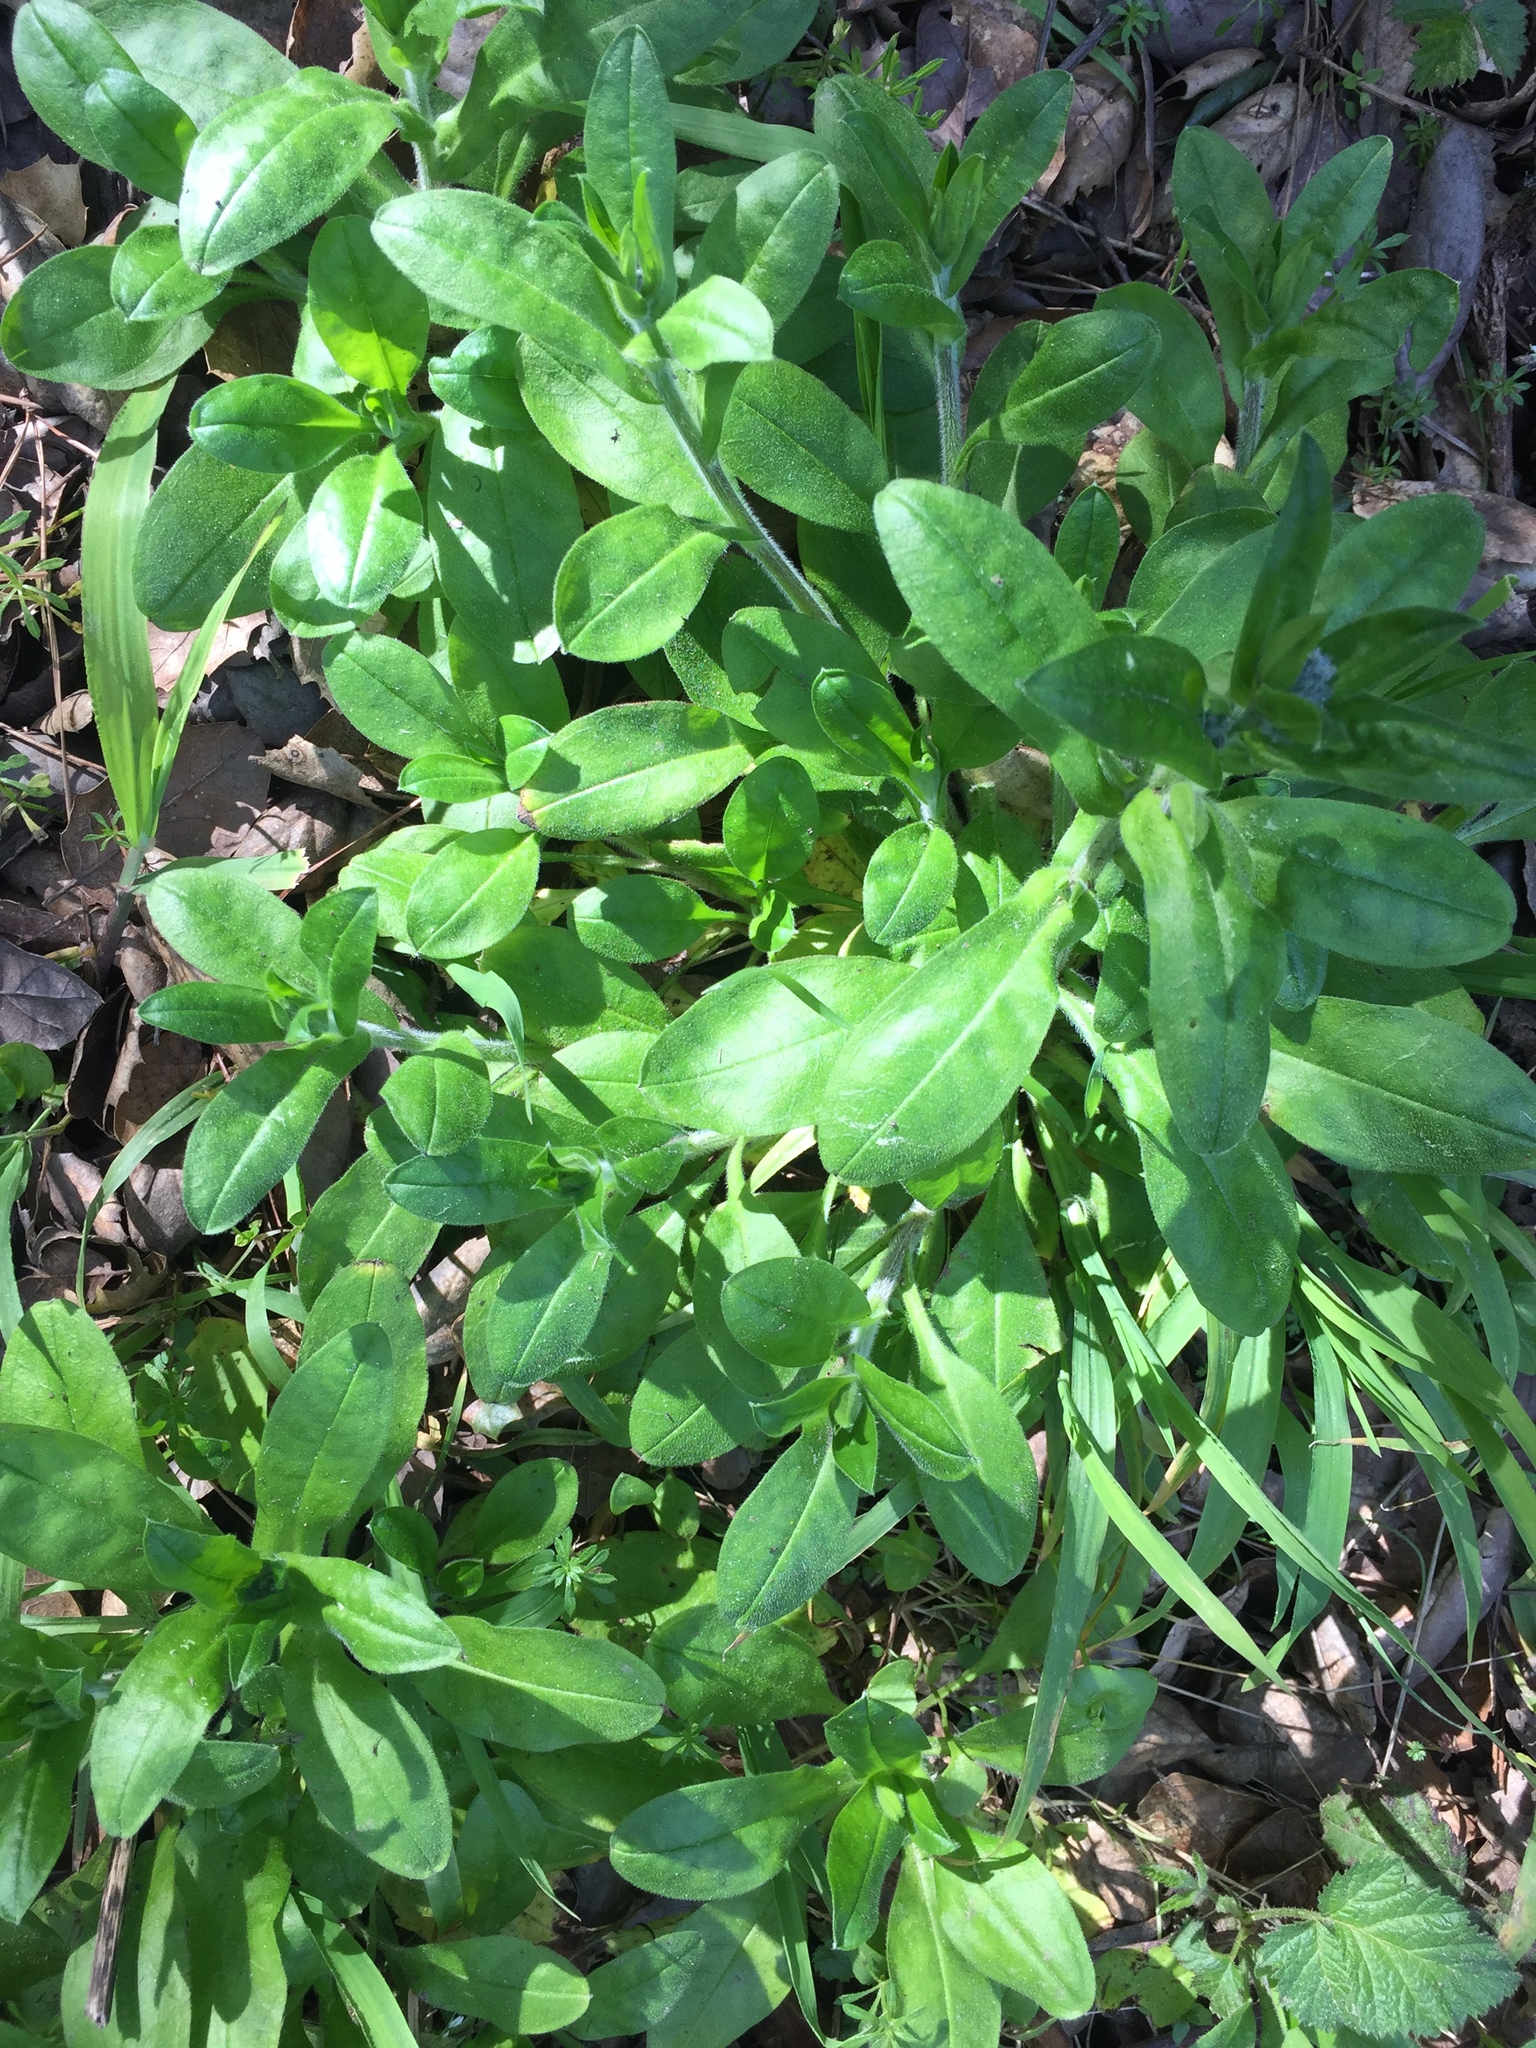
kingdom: Plantae
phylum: Tracheophyta
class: Magnoliopsida
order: Boraginales
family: Boraginaceae
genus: Myosotis
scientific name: Myosotis latifolia
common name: Broadleaf forget-me-not
